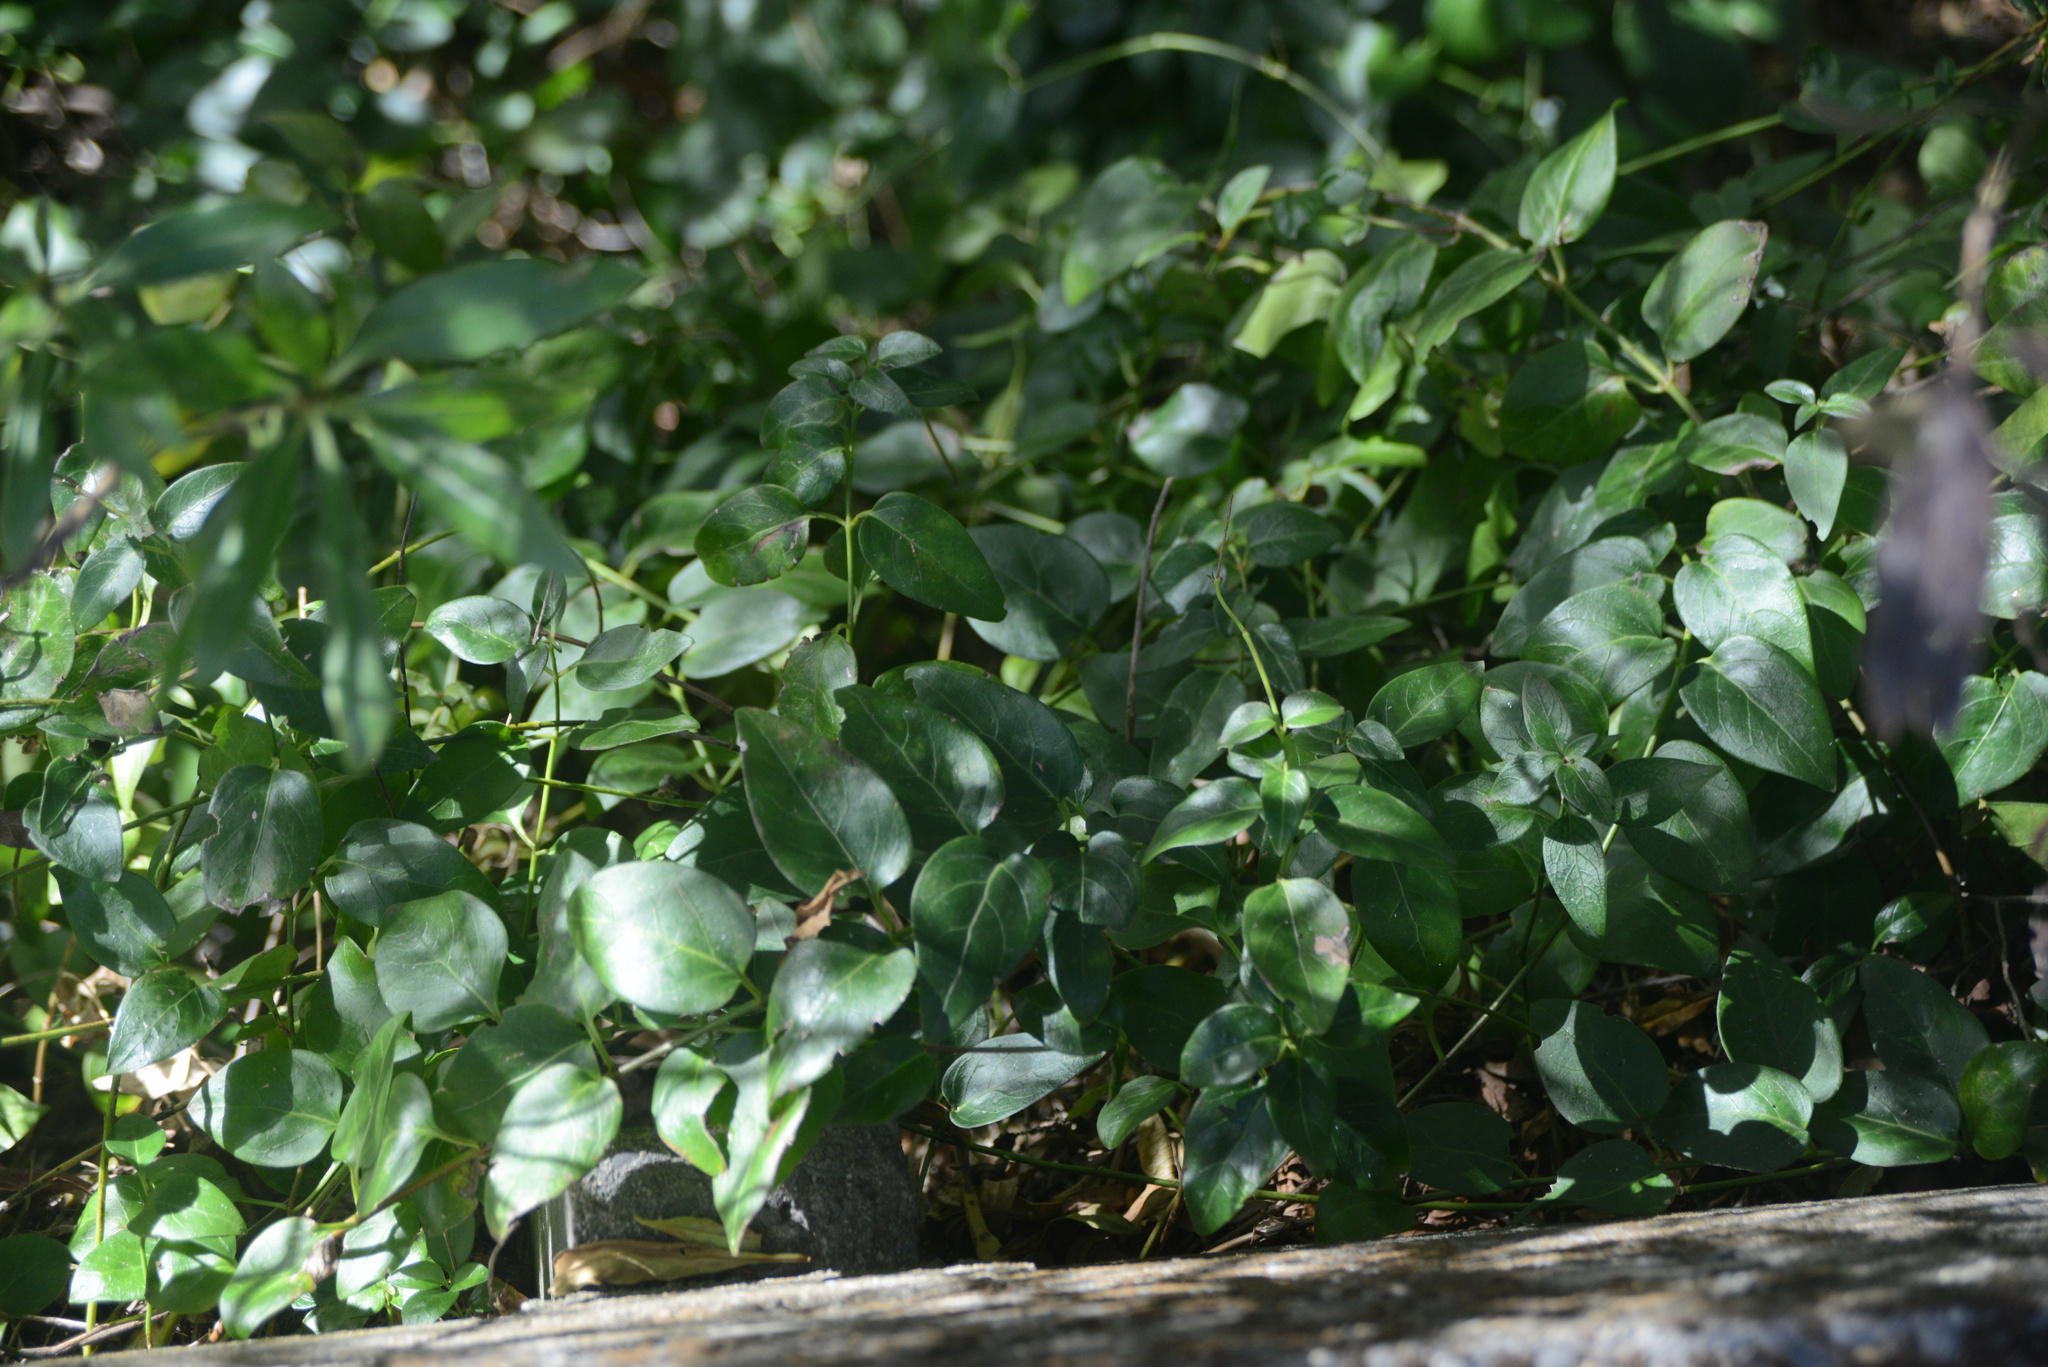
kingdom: Plantae
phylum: Tracheophyta
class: Magnoliopsida
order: Gentianales
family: Apocynaceae
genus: Vinca
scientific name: Vinca major
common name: Greater periwinkle
